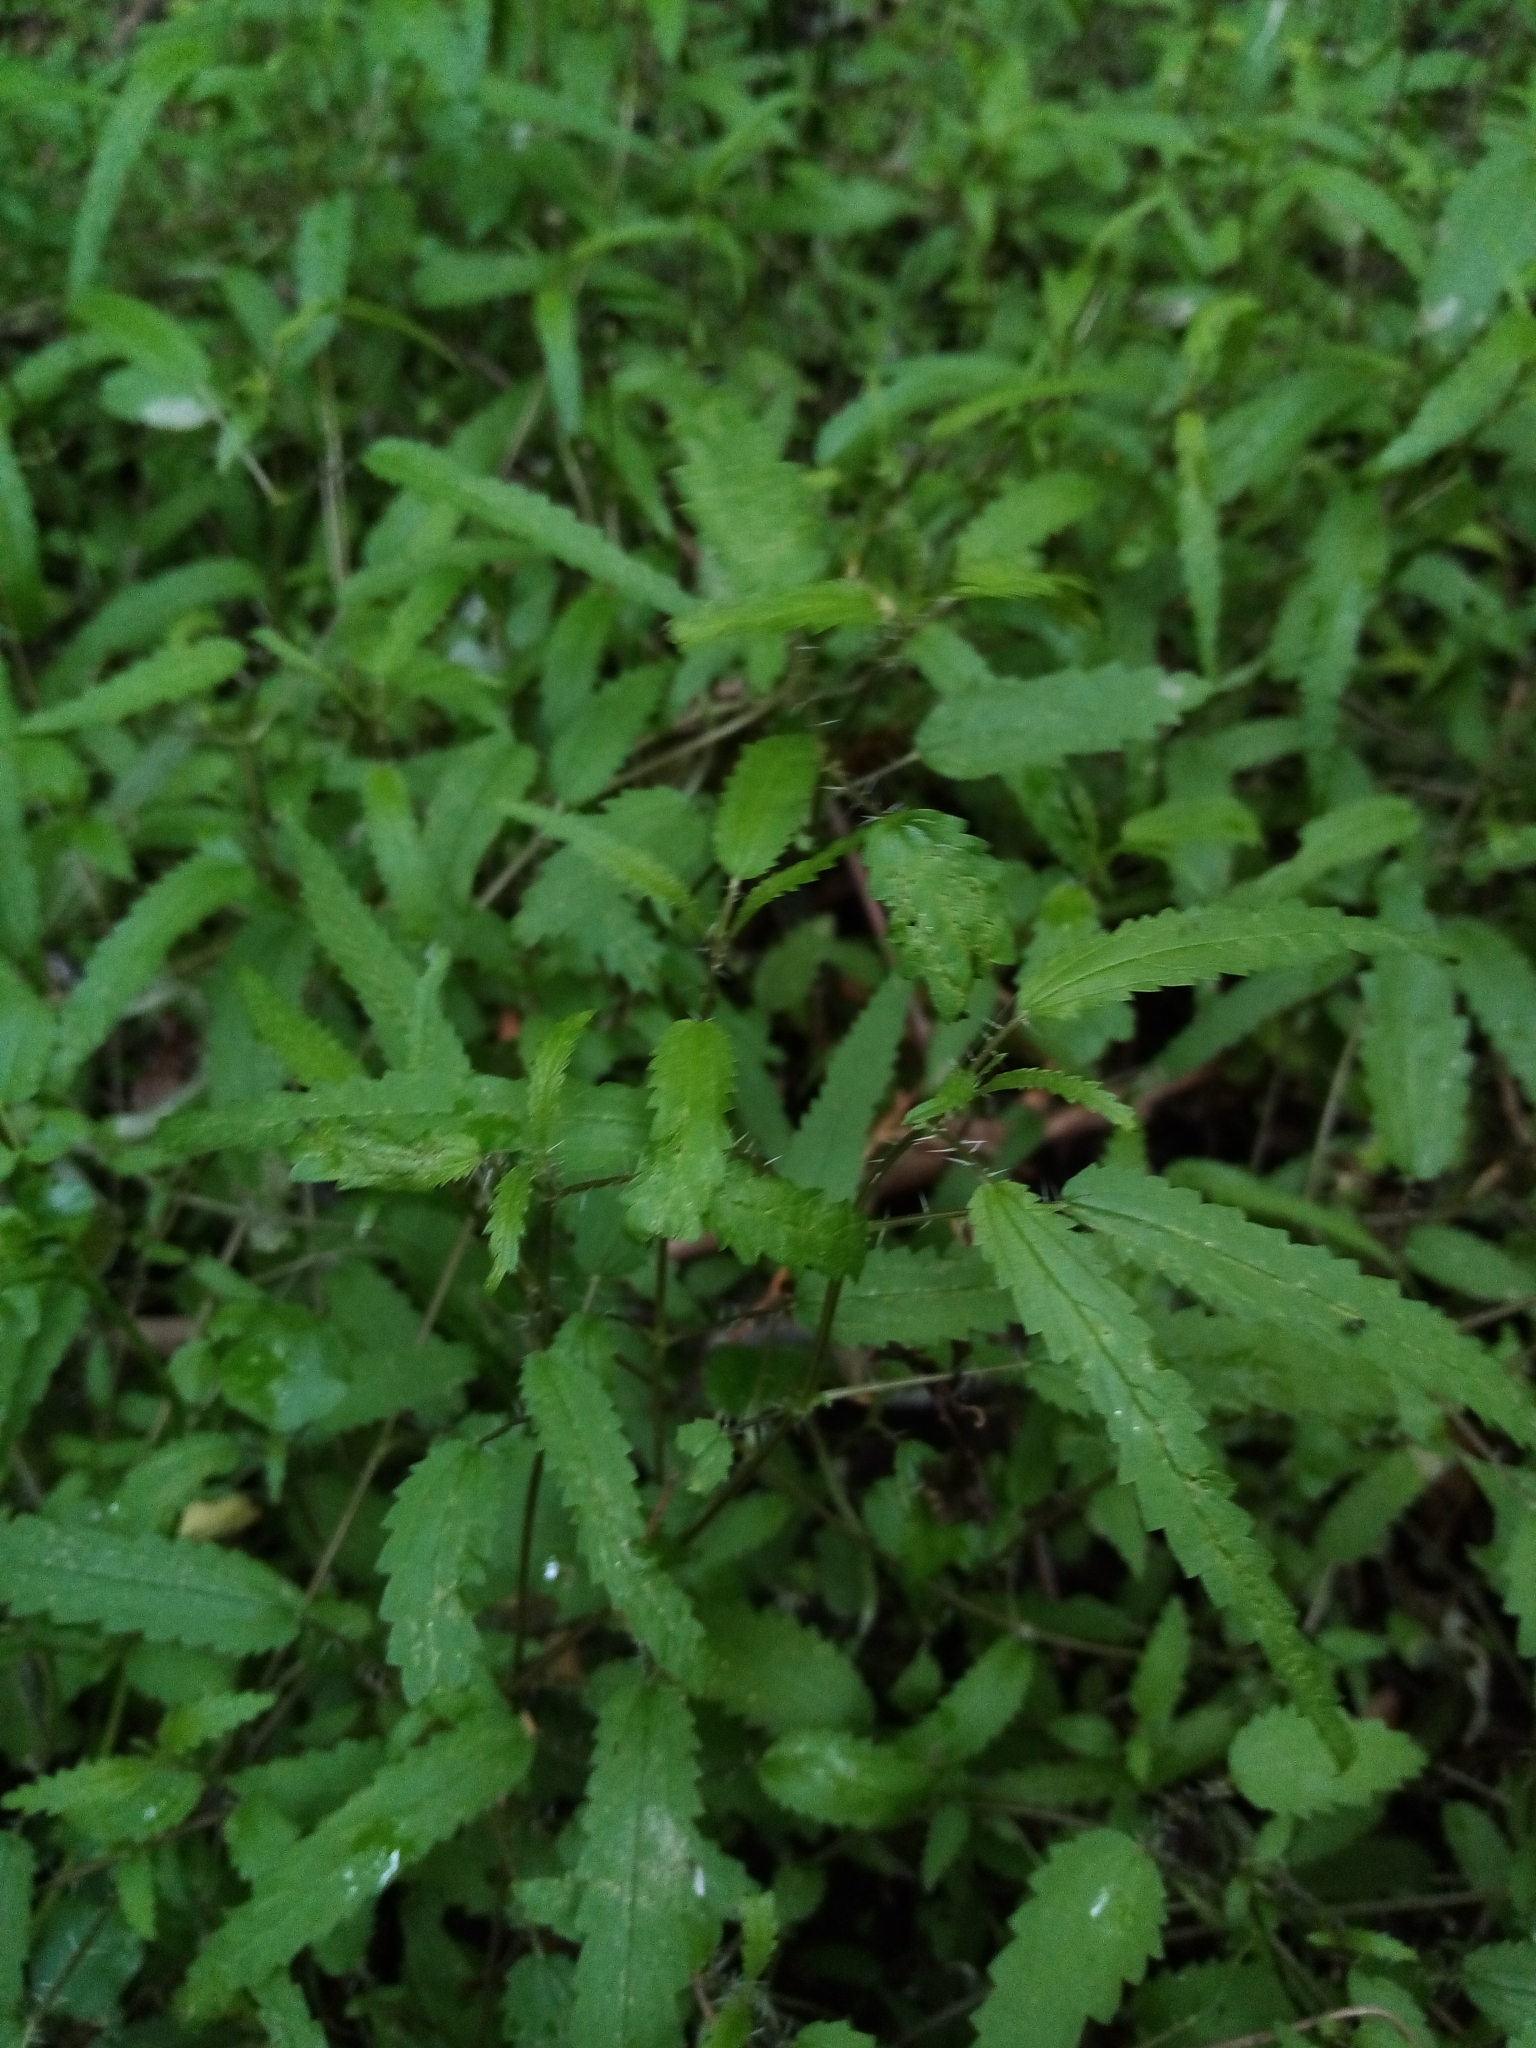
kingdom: Plantae
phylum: Tracheophyta
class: Magnoliopsida
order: Rosales
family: Urticaceae
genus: Urtica
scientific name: Urtica perconfusa
